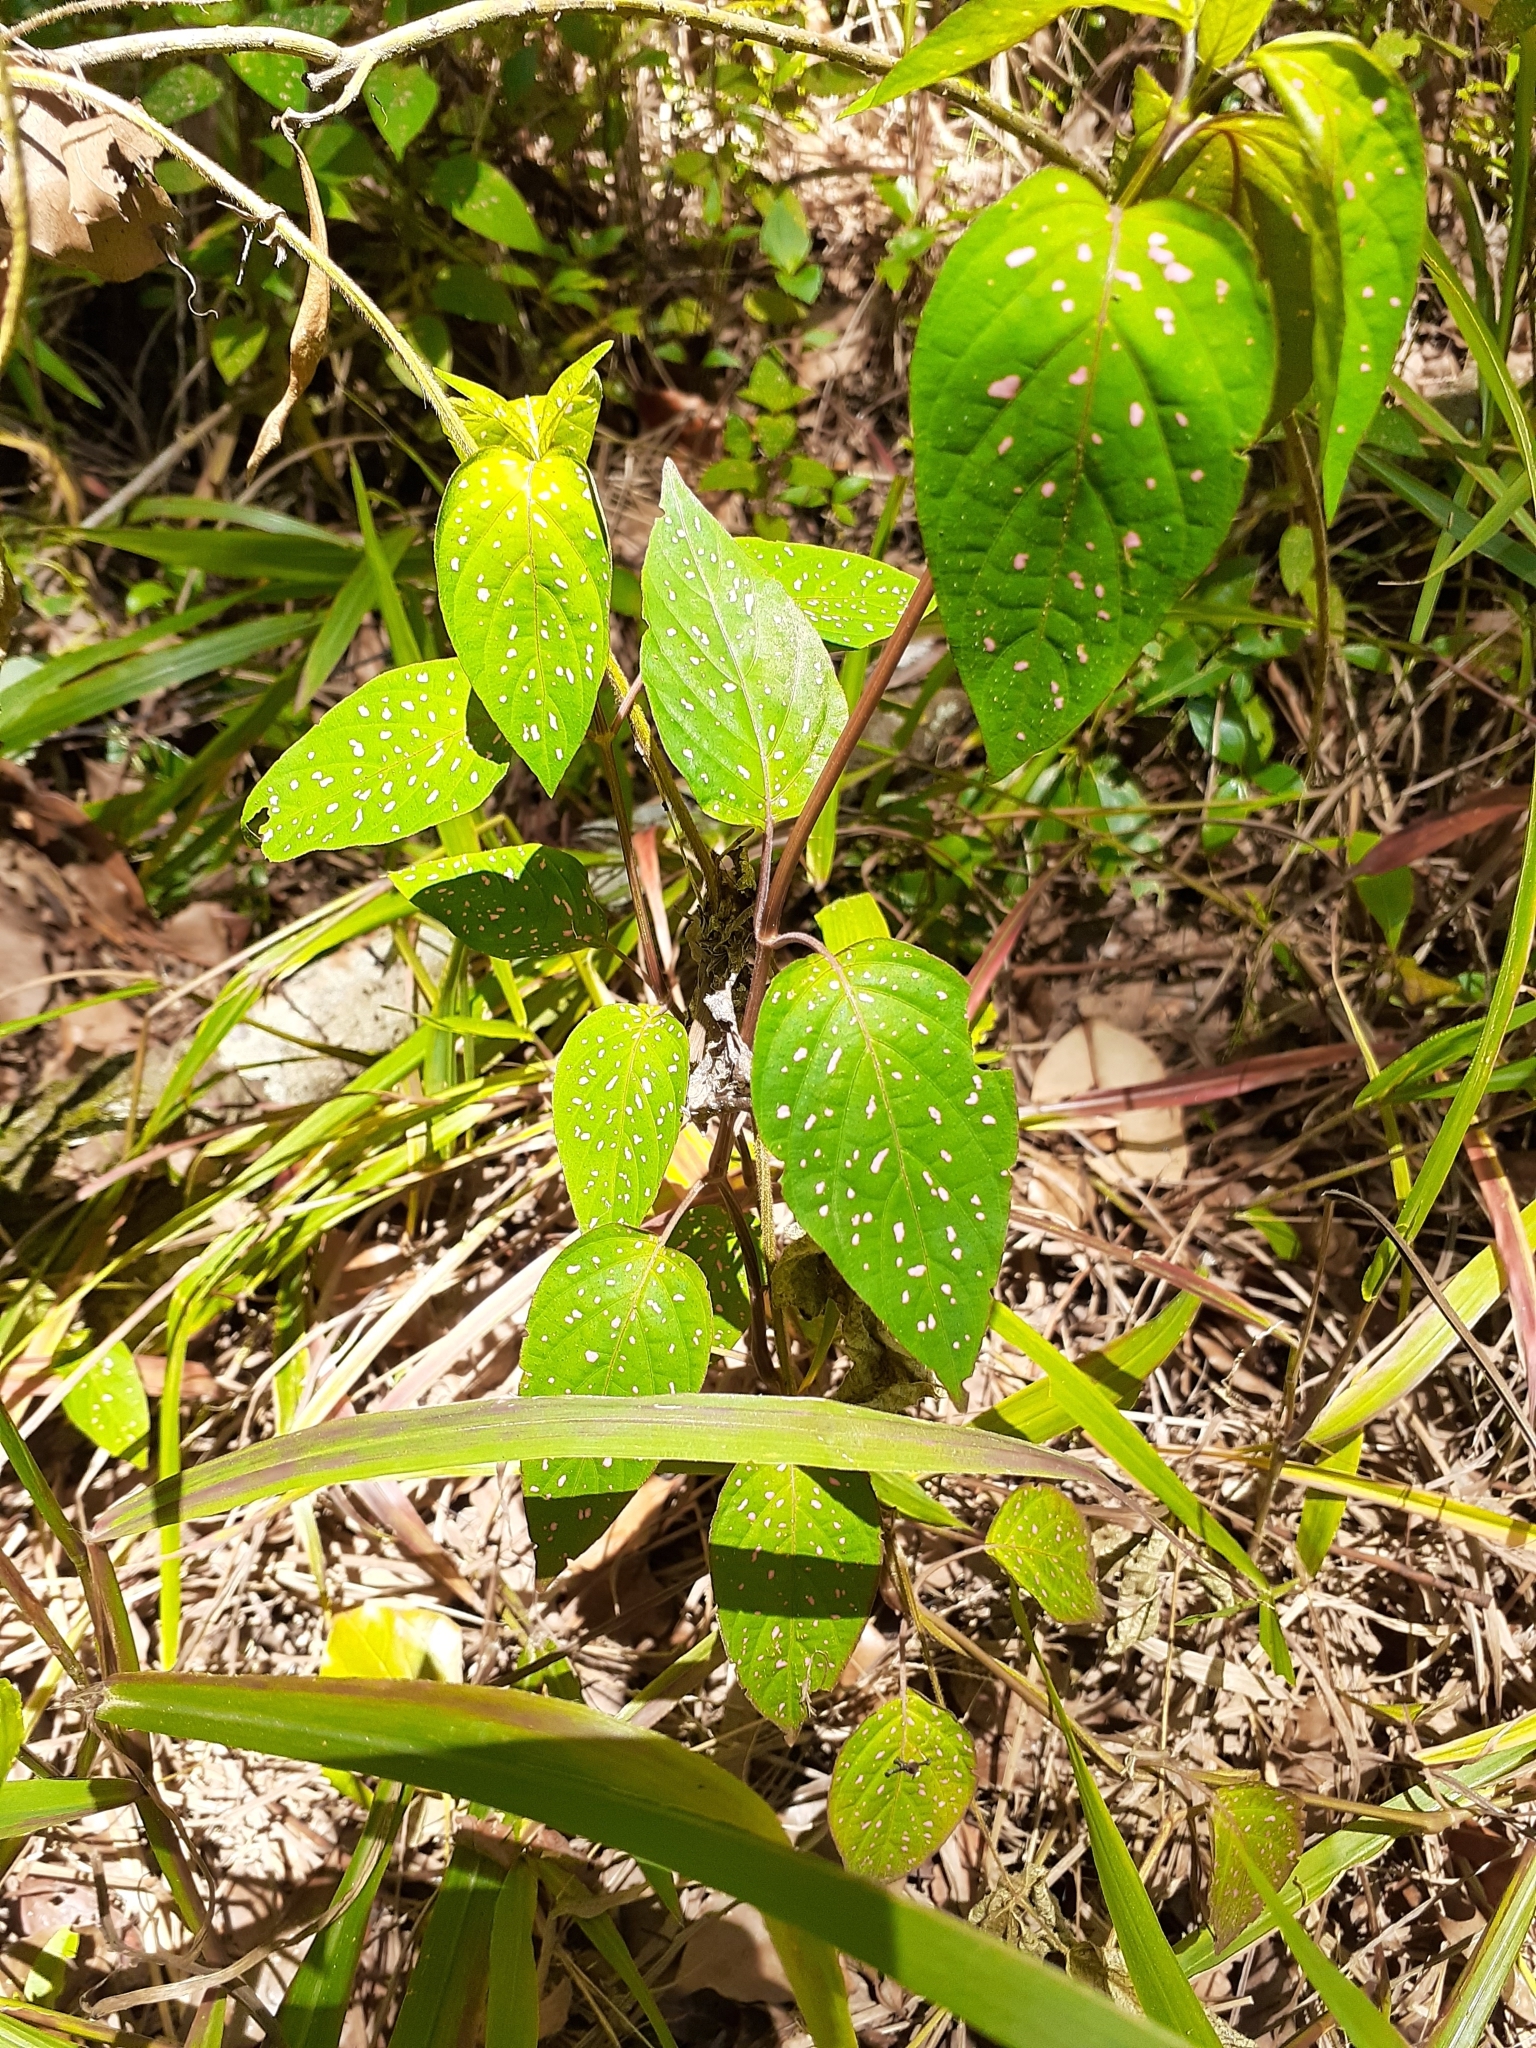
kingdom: Plantae
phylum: Tracheophyta
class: Magnoliopsida
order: Lamiales
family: Acanthaceae
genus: Hypoestes
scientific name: Hypoestes phyllostachya
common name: Polkadot-plant
